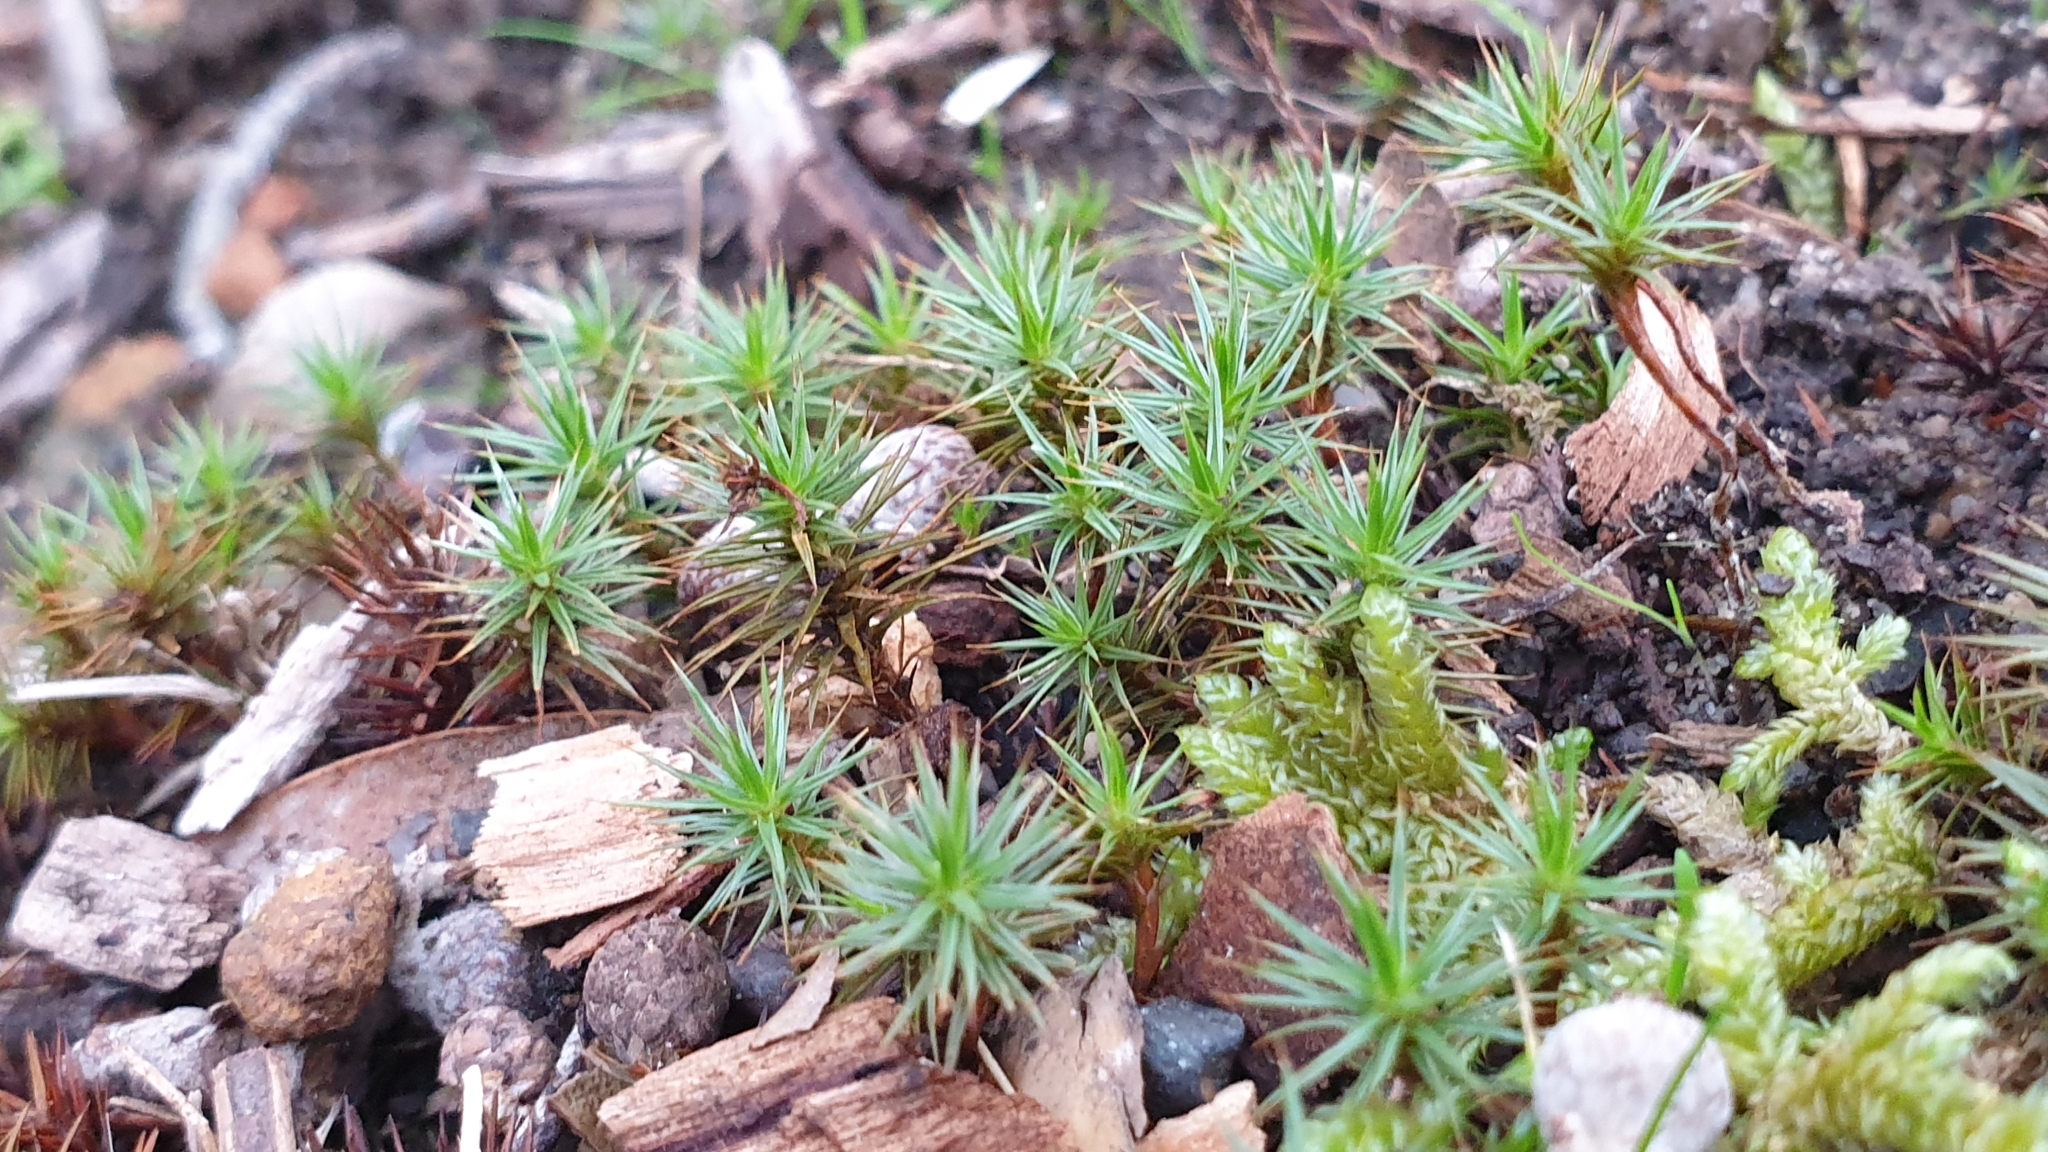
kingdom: Plantae
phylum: Bryophyta
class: Polytrichopsida
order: Polytrichales
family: Polytrichaceae
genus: Polytrichum
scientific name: Polytrichum juniperinum
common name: Juniper haircap moss
